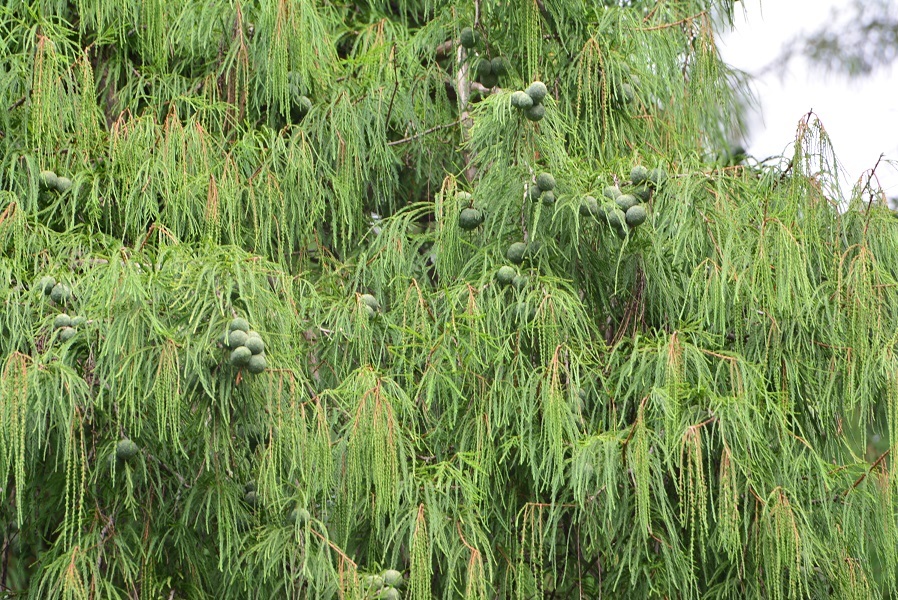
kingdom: Plantae
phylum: Tracheophyta
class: Pinopsida
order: Pinales
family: Cupressaceae
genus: Taxodium
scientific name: Taxodium mucronatum
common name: Montezume bald cypress
